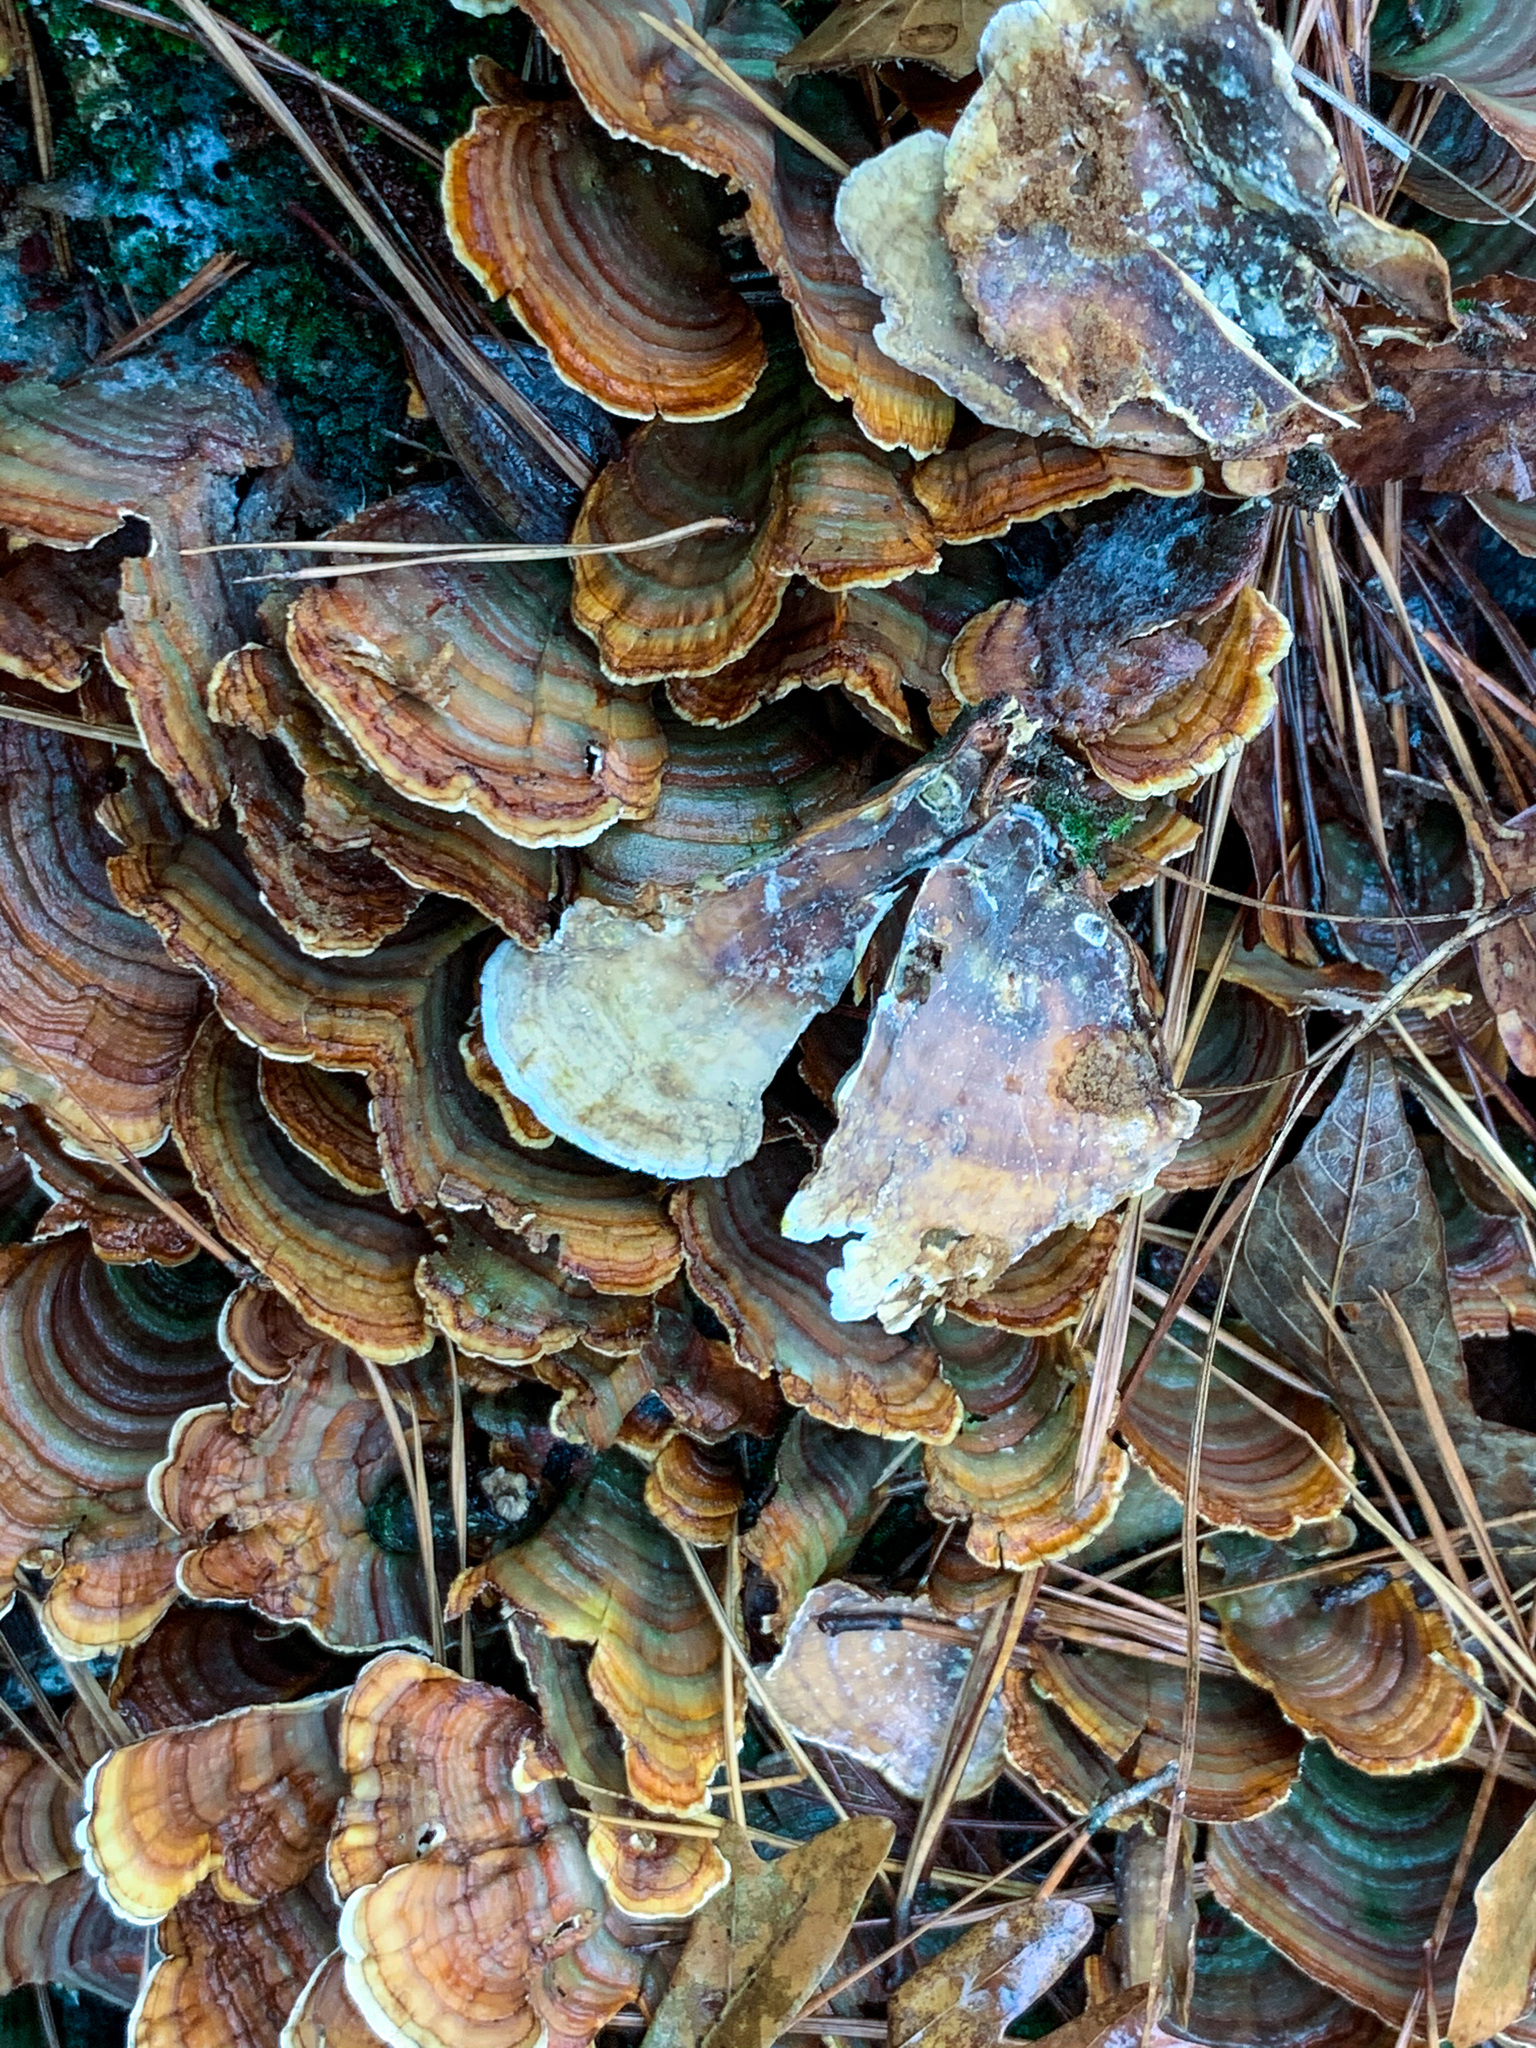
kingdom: Fungi
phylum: Basidiomycota
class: Agaricomycetes
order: Russulales
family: Stereaceae
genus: Stereum
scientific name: Stereum ostrea
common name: False turkeytail
